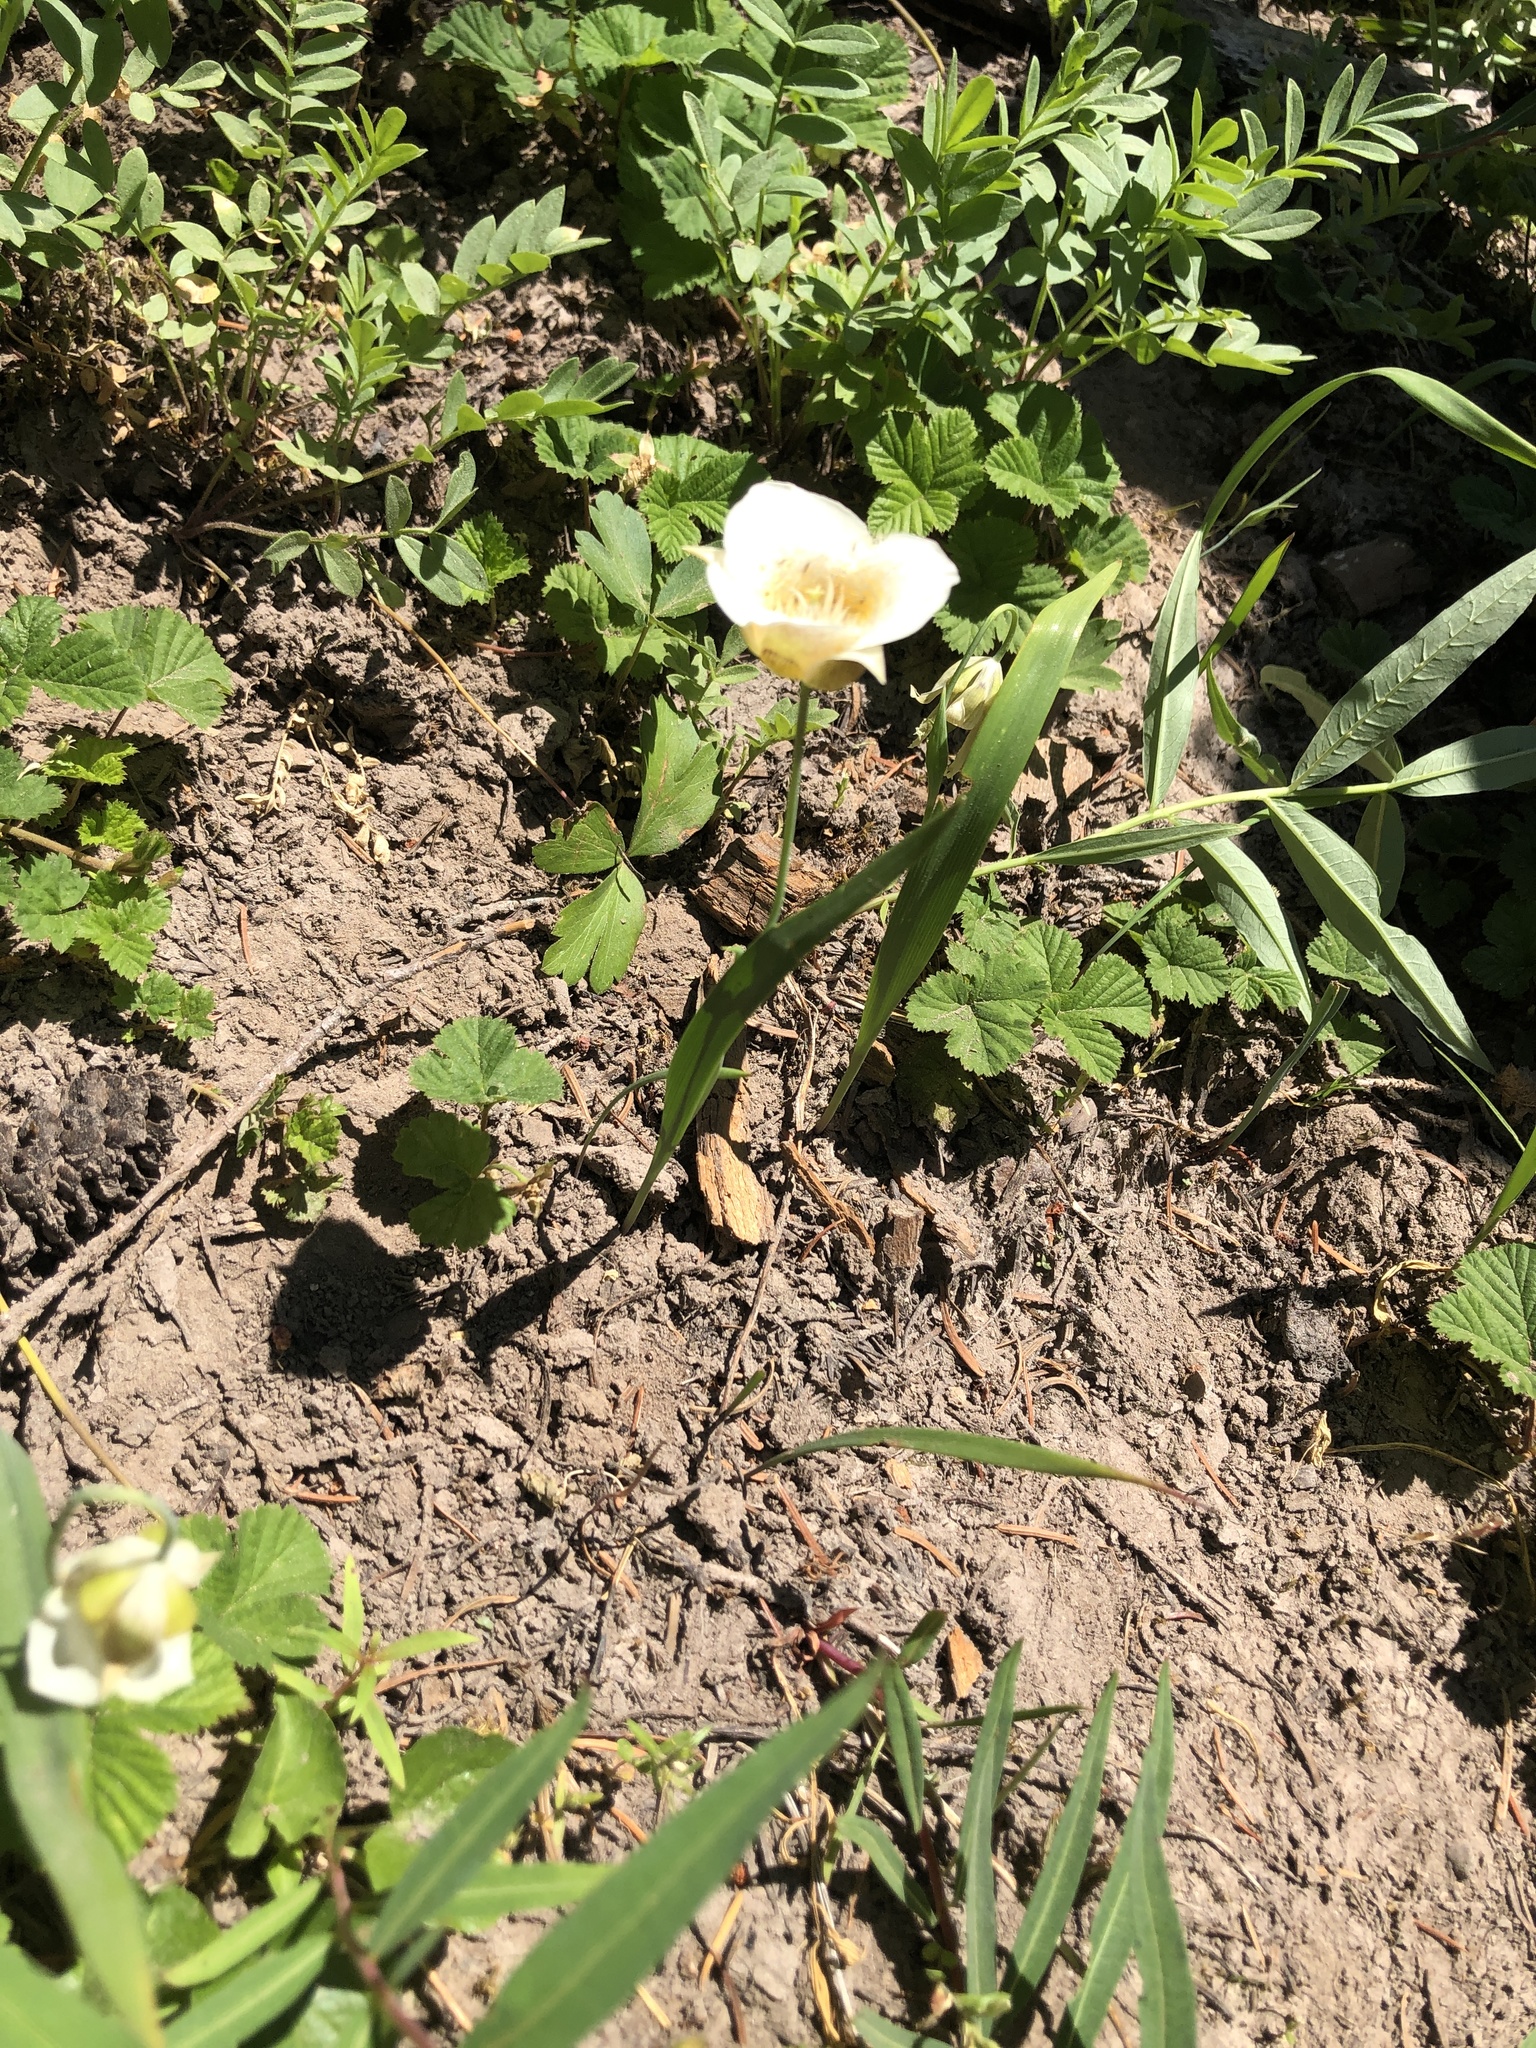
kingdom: Plantae
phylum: Tracheophyta
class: Liliopsida
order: Liliales
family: Liliaceae
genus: Calochortus
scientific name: Calochortus subalpinus
